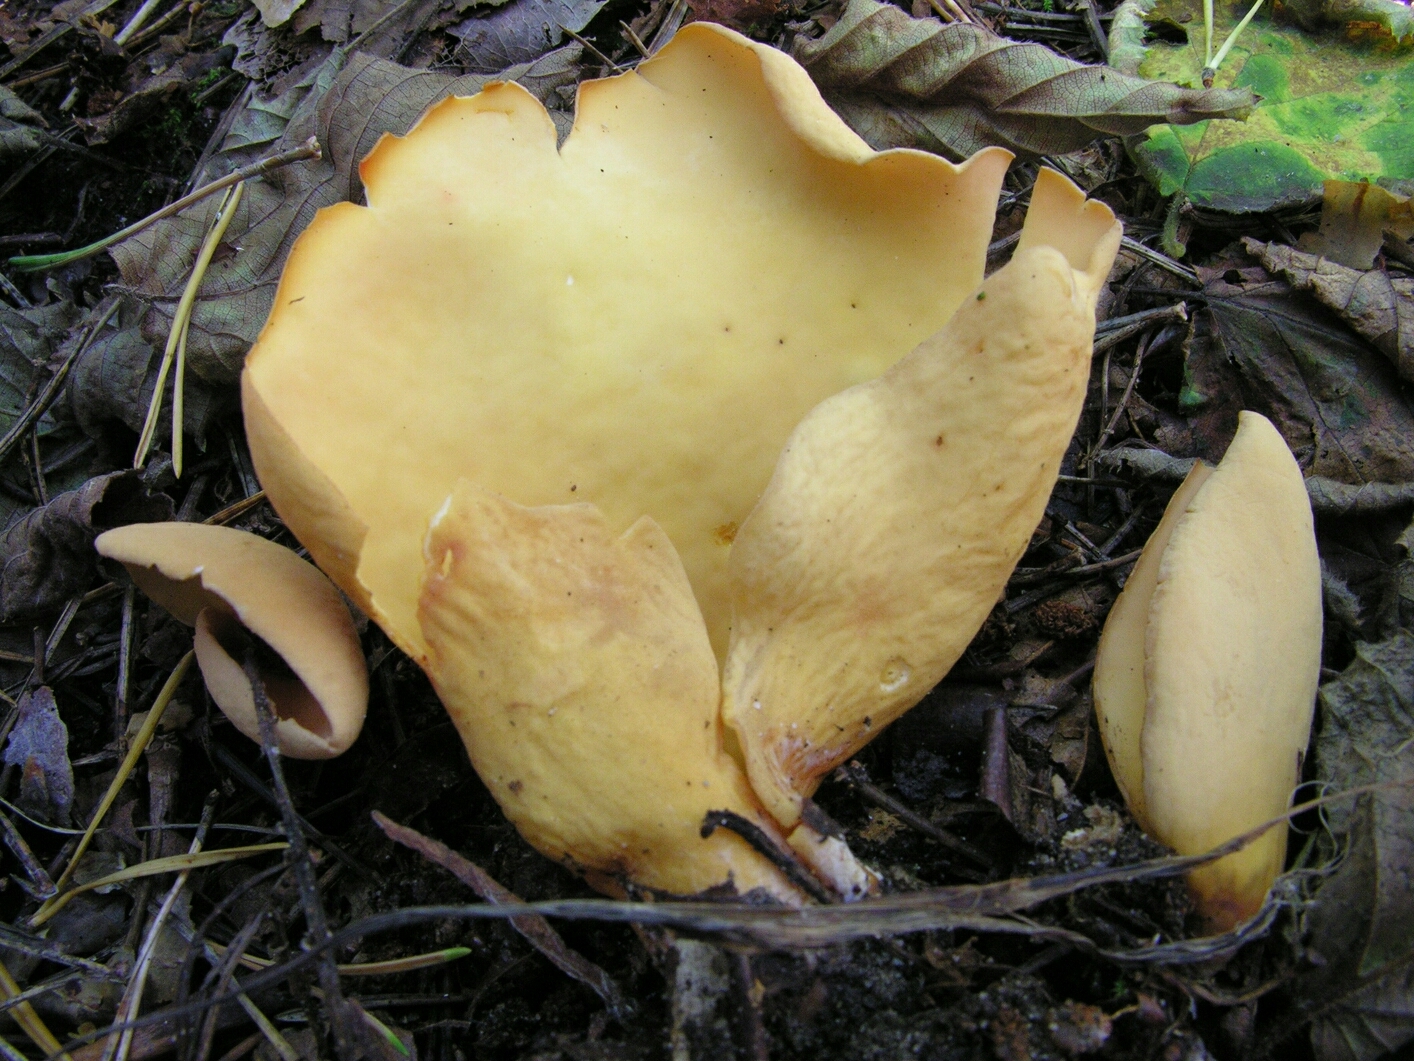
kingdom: Fungi
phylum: Ascomycota
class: Pezizomycetes
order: Pezizales
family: Otideaceae
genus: Otidea
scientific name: Otidea onotica
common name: Hare's ear
